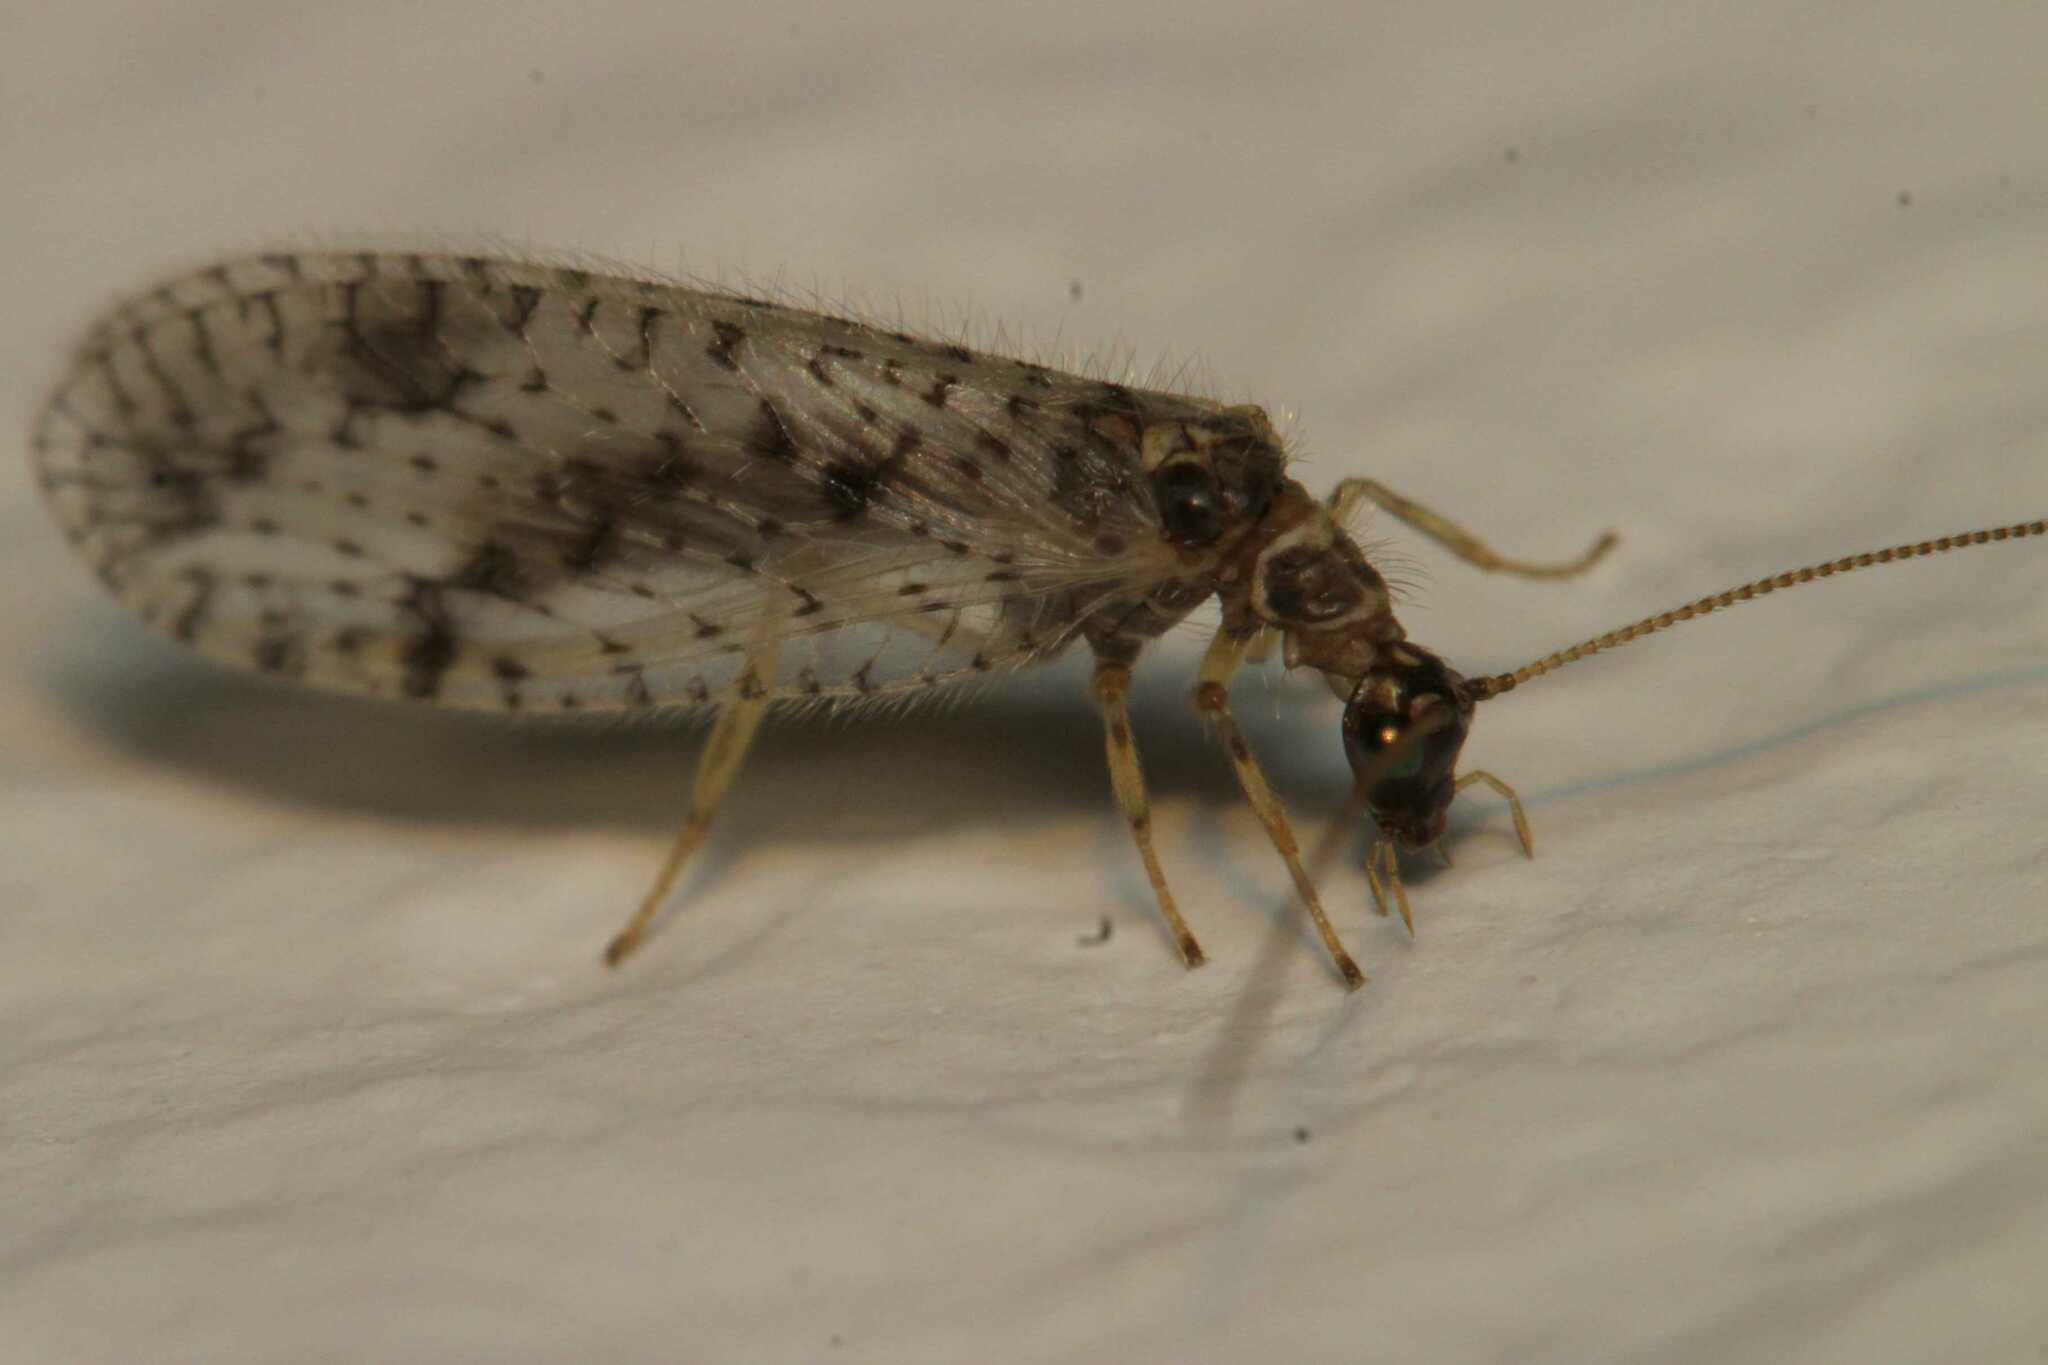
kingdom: Animalia
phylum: Arthropoda
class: Insecta
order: Neuroptera
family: Hemerobiidae
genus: Micromus
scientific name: Micromus variegatus
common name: Brown lacewing
